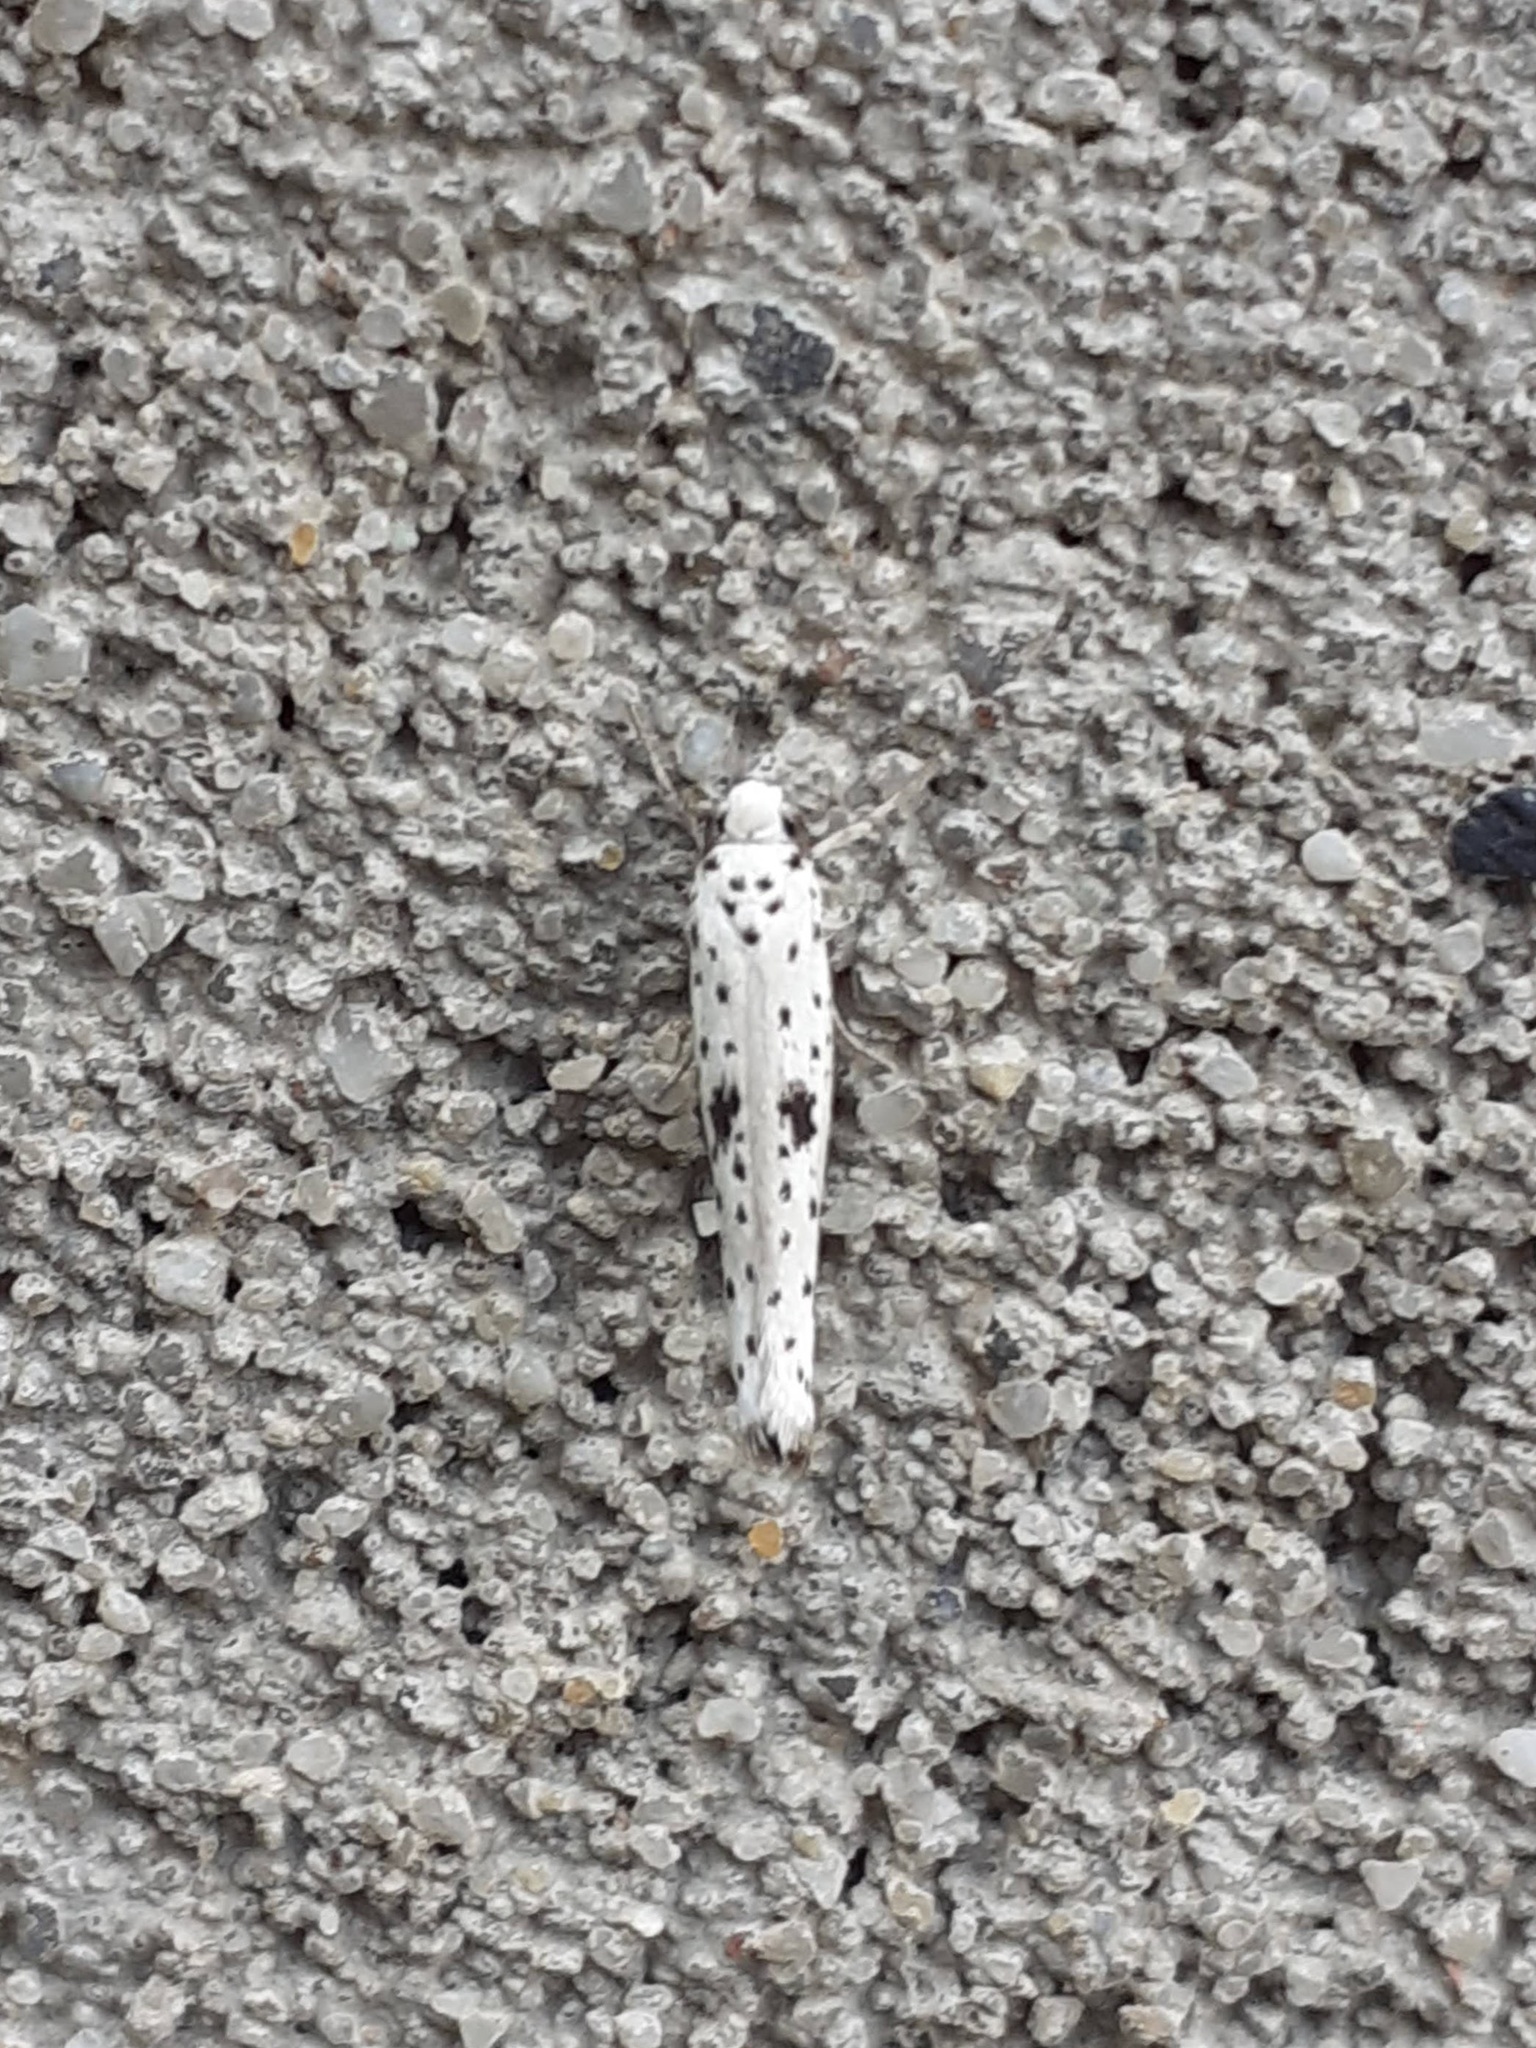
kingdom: Animalia
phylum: Arthropoda
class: Insecta
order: Lepidoptera
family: Yponomeutidae
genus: Yponomeuta
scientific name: Yponomeuta plumbella
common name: Black-tipped ermine
